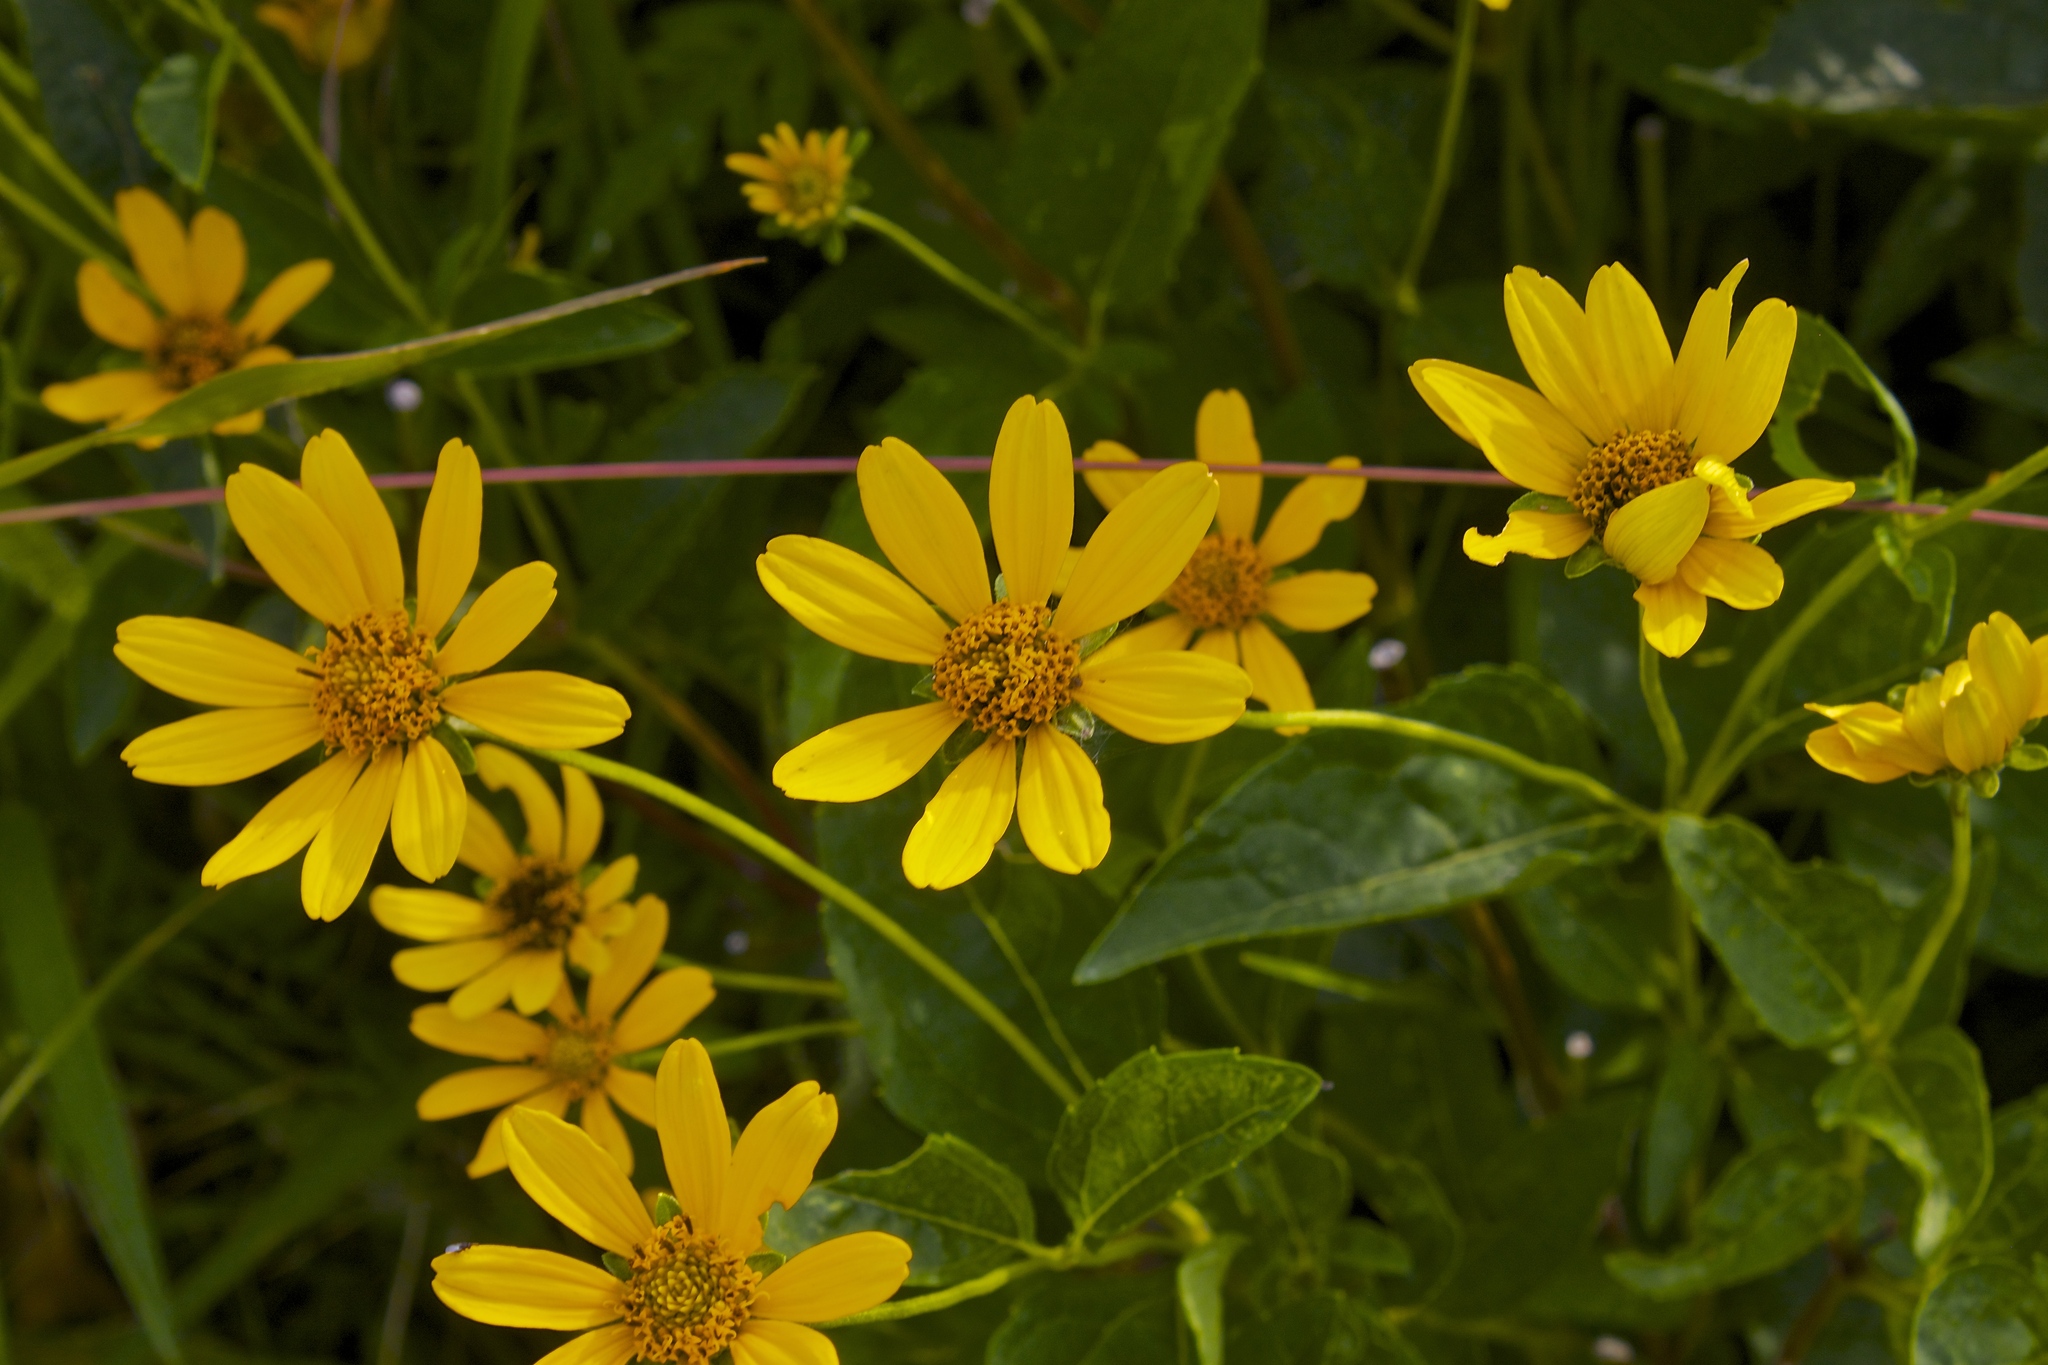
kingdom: Plantae
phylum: Tracheophyta
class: Magnoliopsida
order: Asterales
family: Asteraceae
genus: Heliopsis
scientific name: Heliopsis helianthoides
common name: False sunflower
